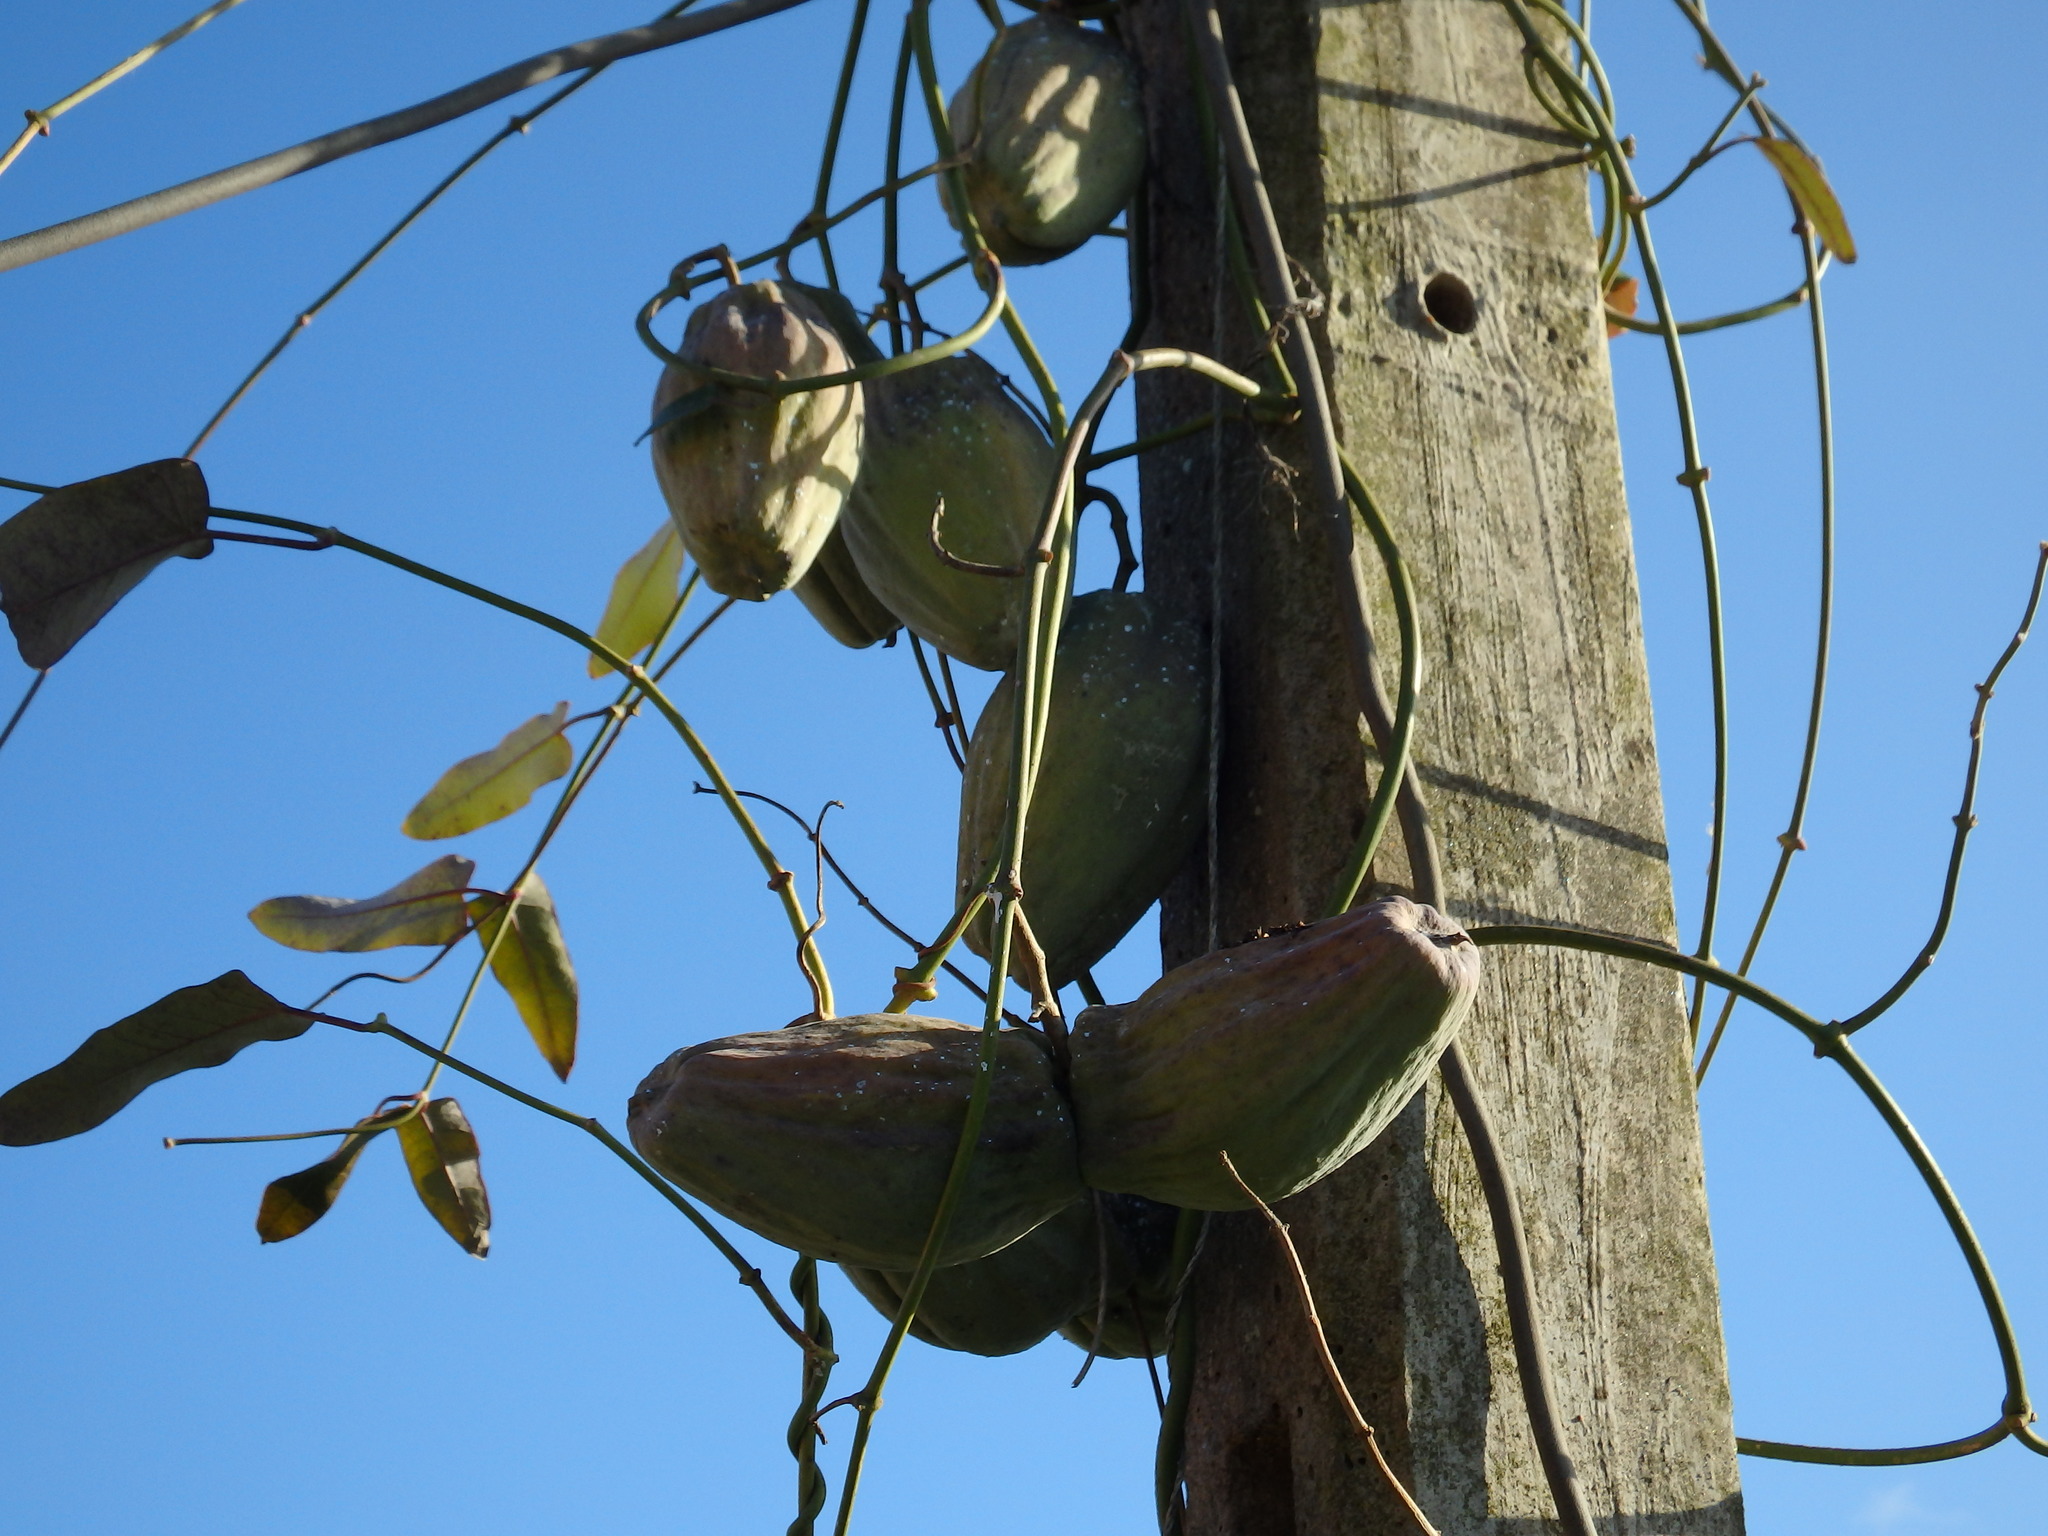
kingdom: Plantae
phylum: Tracheophyta
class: Magnoliopsida
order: Gentianales
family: Apocynaceae
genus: Araujia
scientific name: Araujia sericifera
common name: White bladderflower
